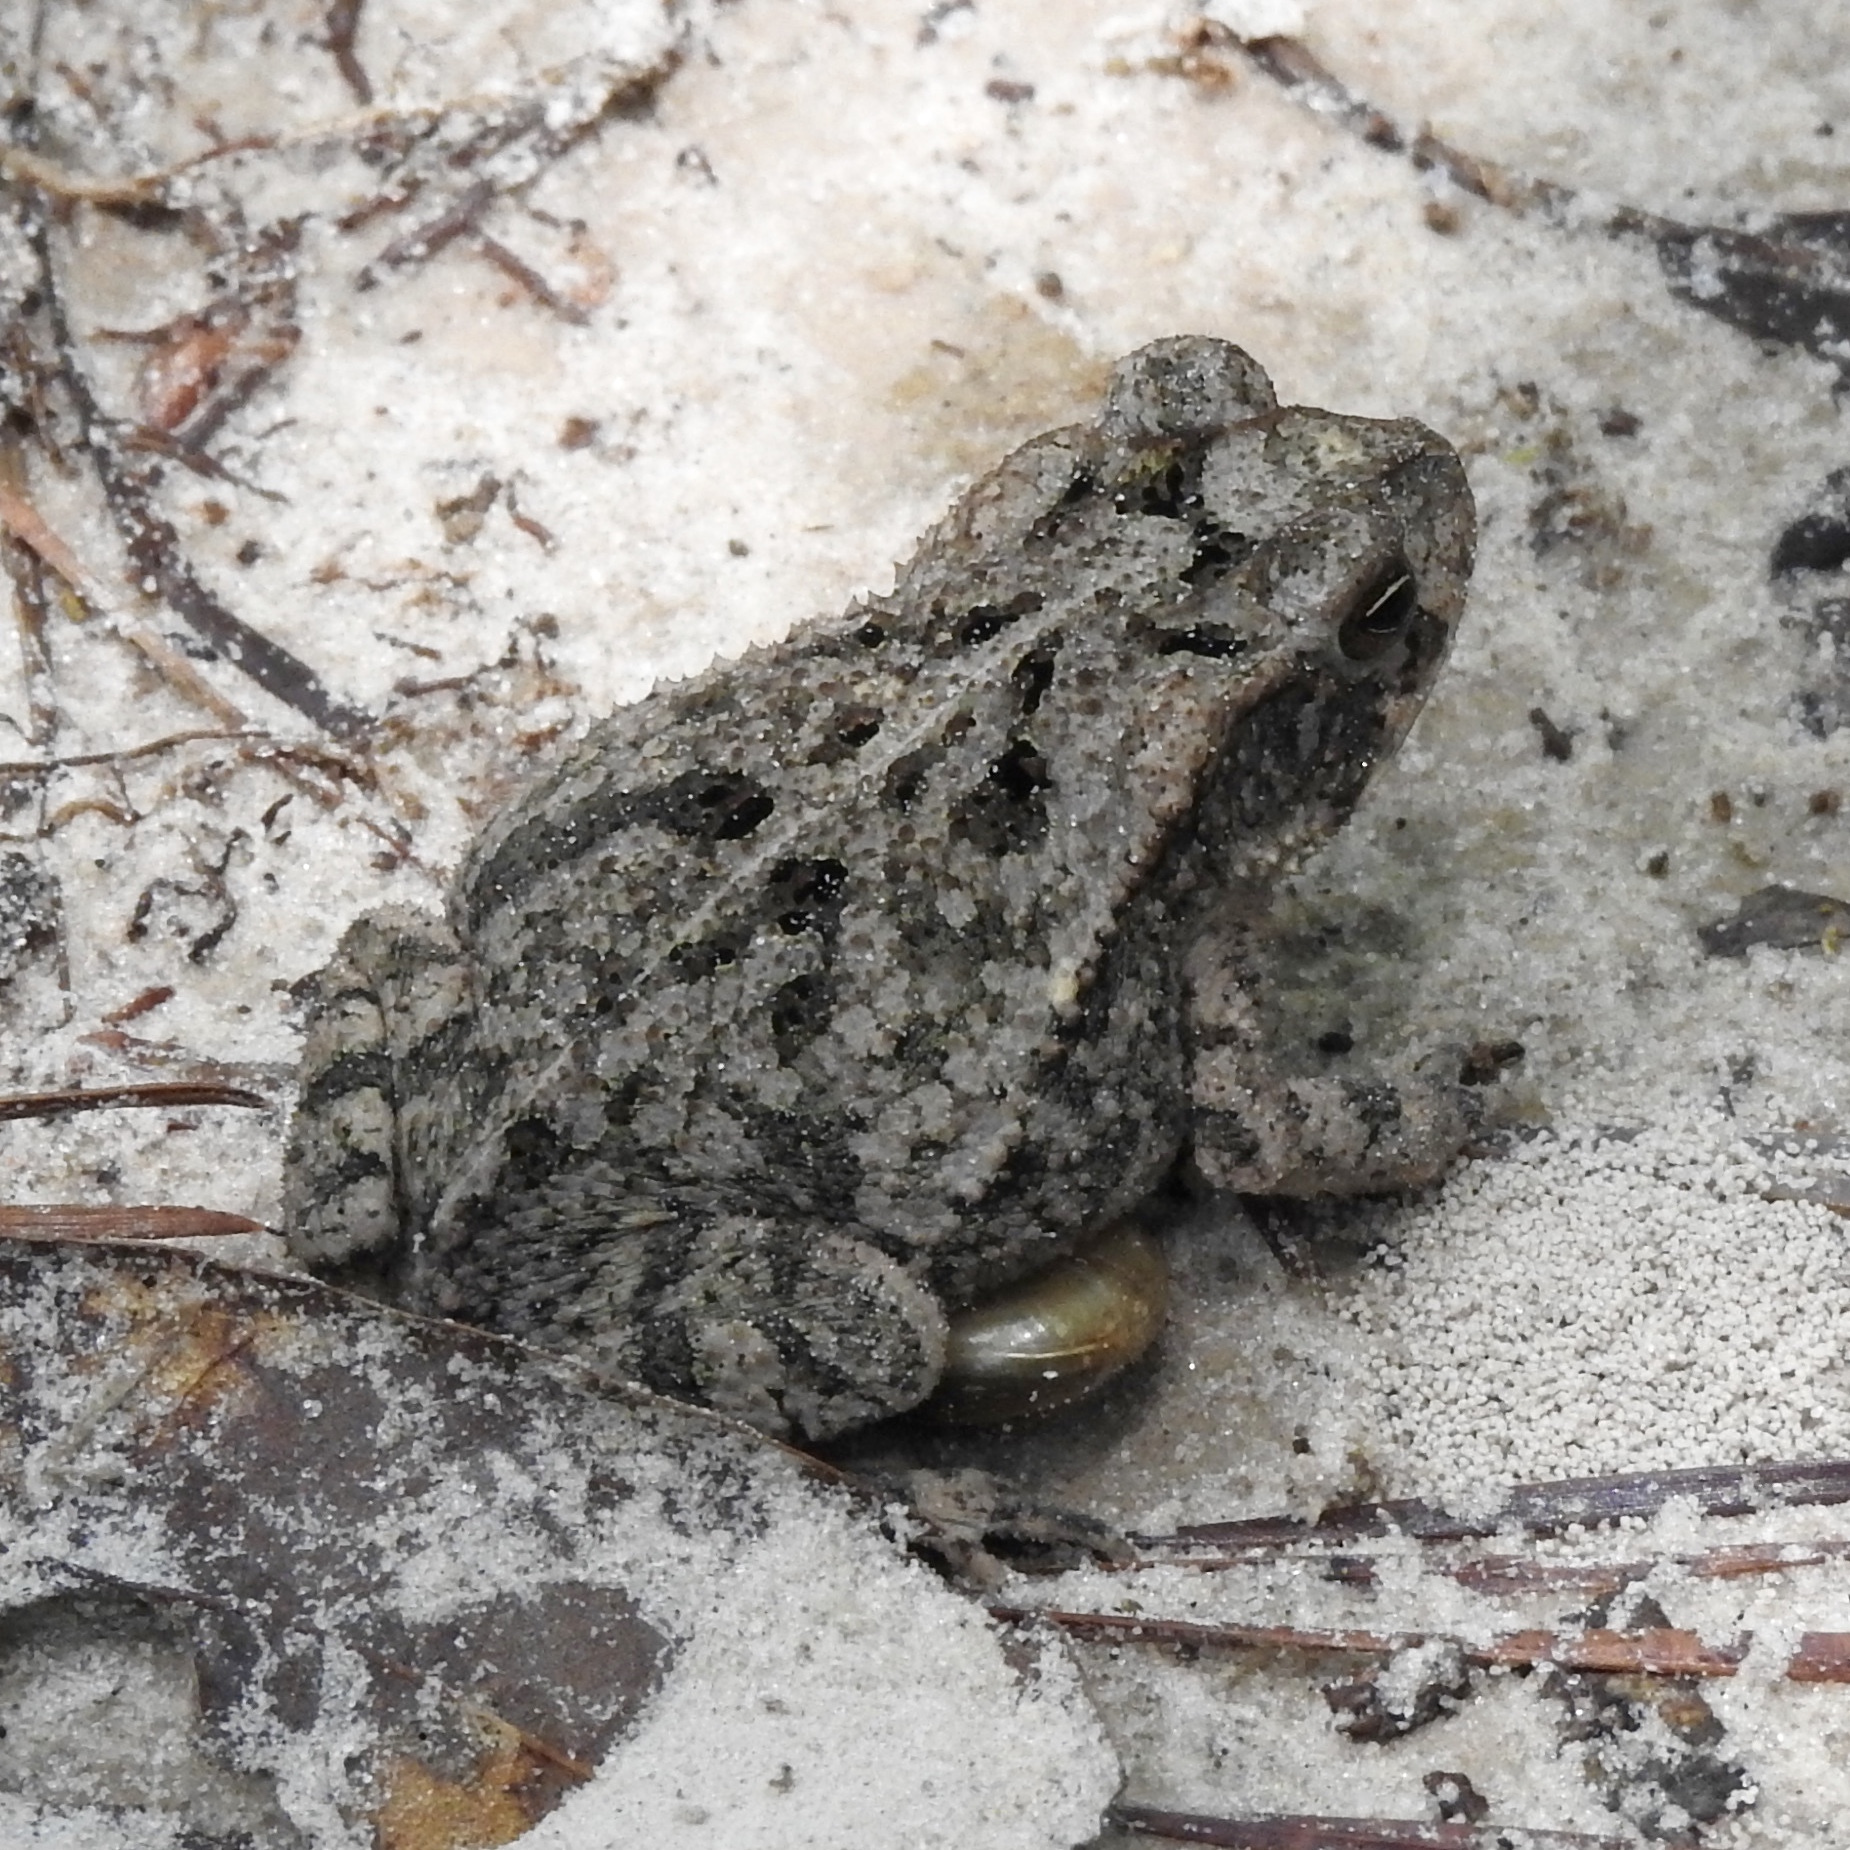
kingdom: Animalia
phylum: Chordata
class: Amphibia
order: Anura
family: Bufonidae
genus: Incilius
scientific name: Incilius nebulifer
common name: Gulf coast toad
